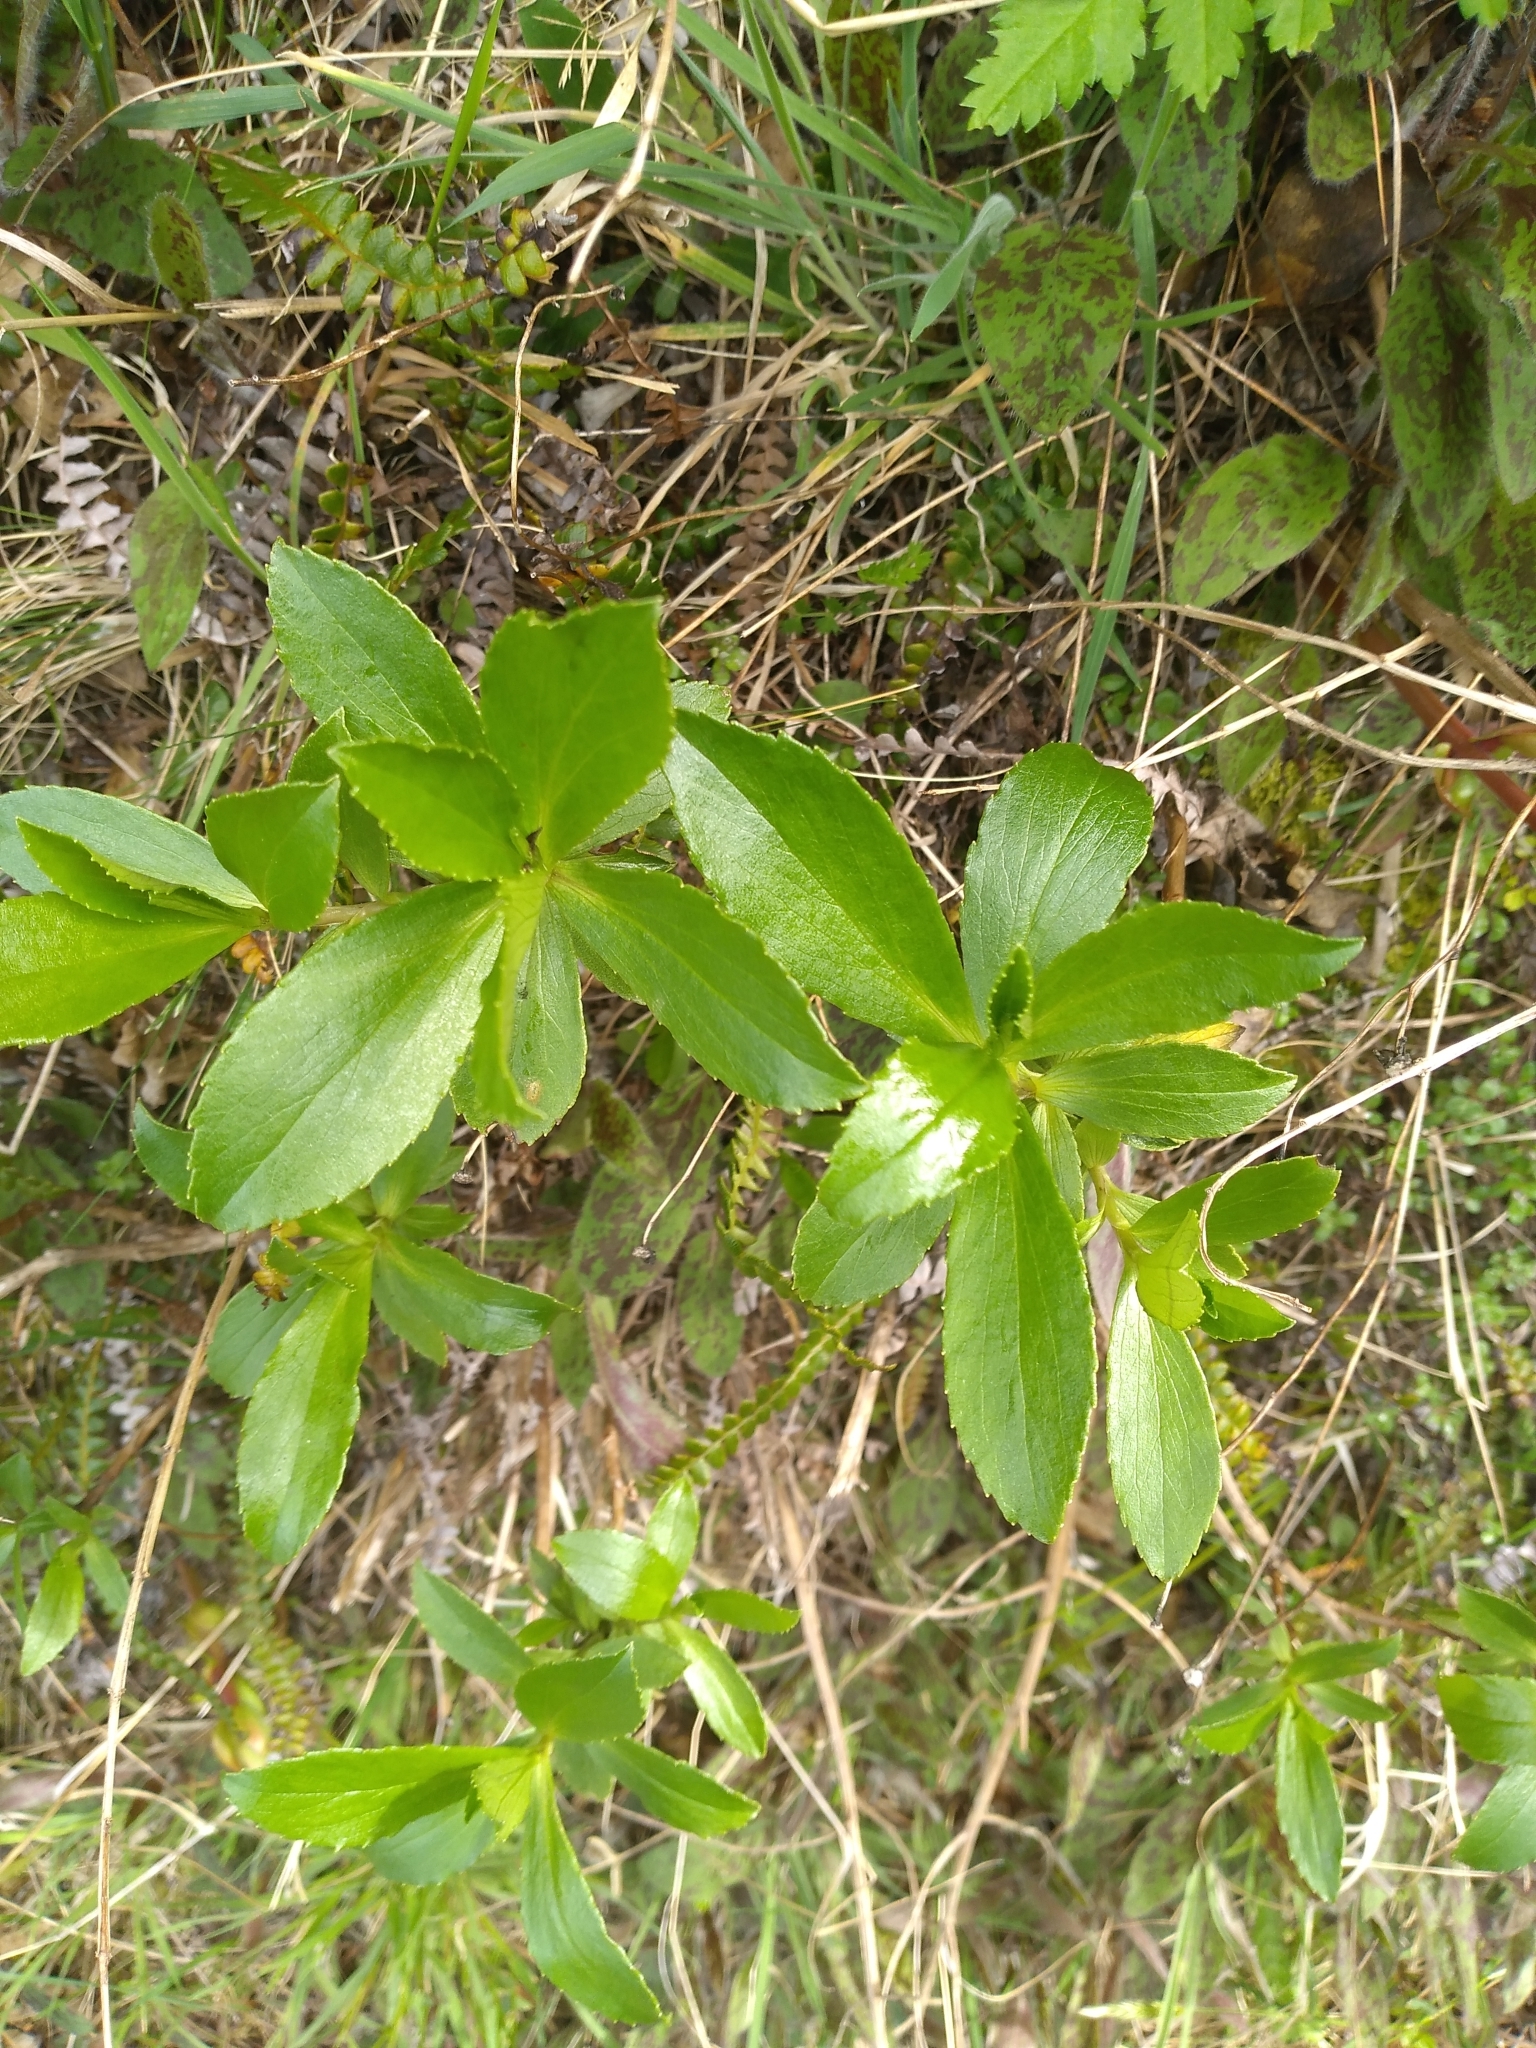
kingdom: Plantae
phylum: Tracheophyta
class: Magnoliopsida
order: Asterales
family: Asteraceae
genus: Traversia
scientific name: Traversia baccharoides
